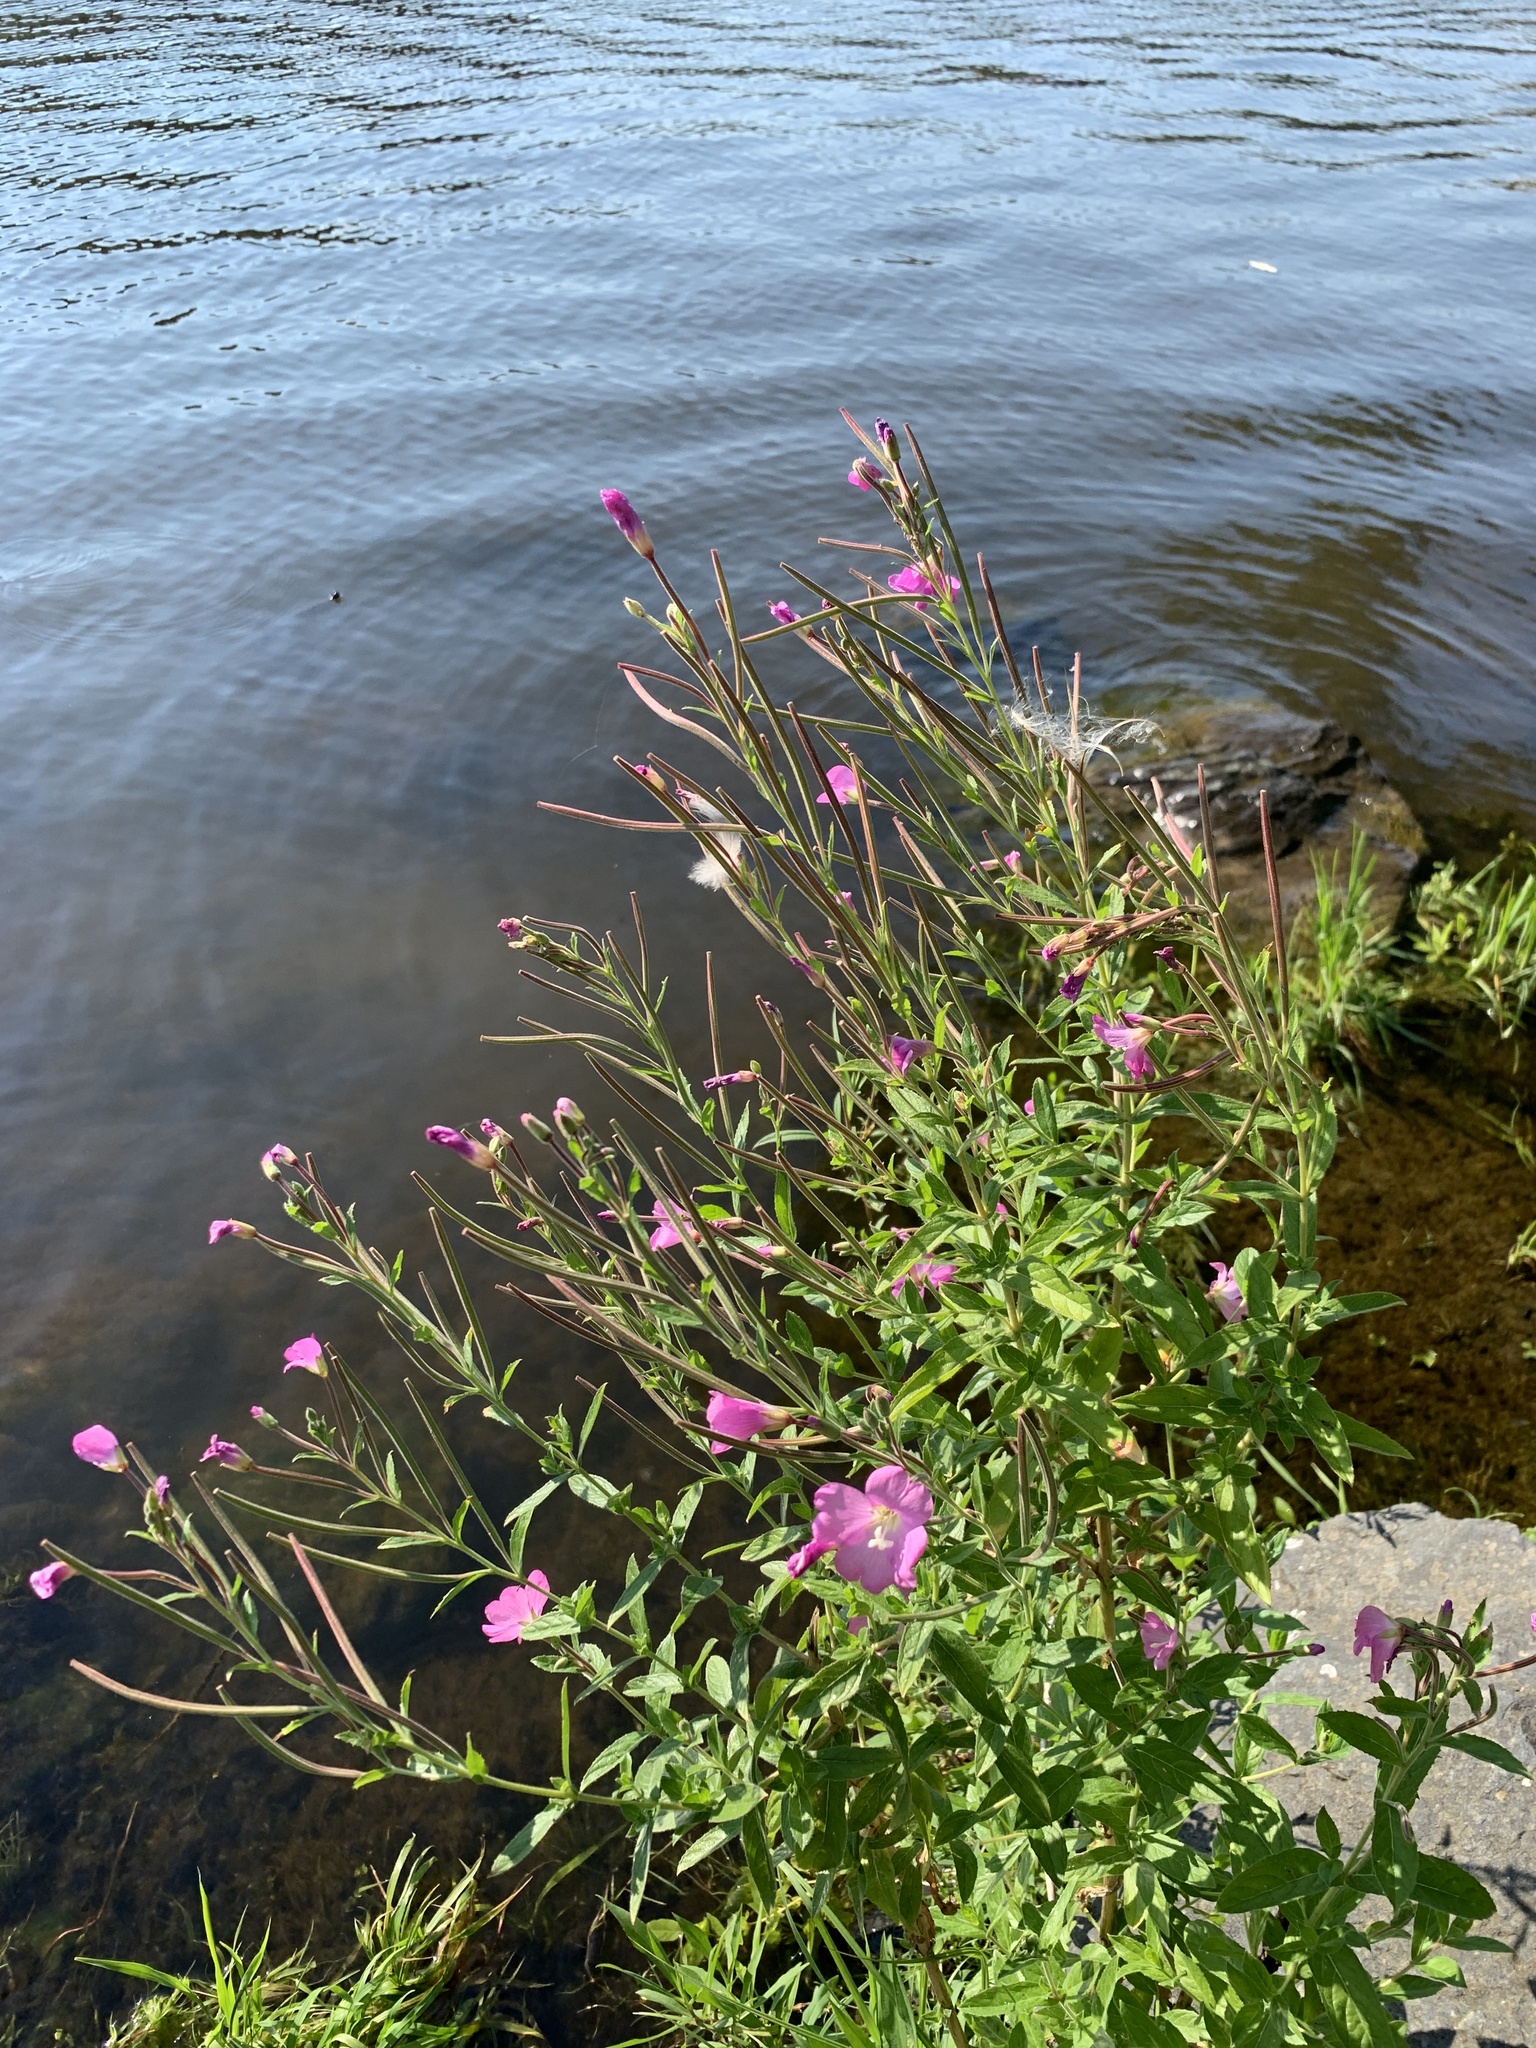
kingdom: Plantae
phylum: Tracheophyta
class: Magnoliopsida
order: Myrtales
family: Onagraceae
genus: Epilobium
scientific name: Epilobium hirsutum
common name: Great willowherb
